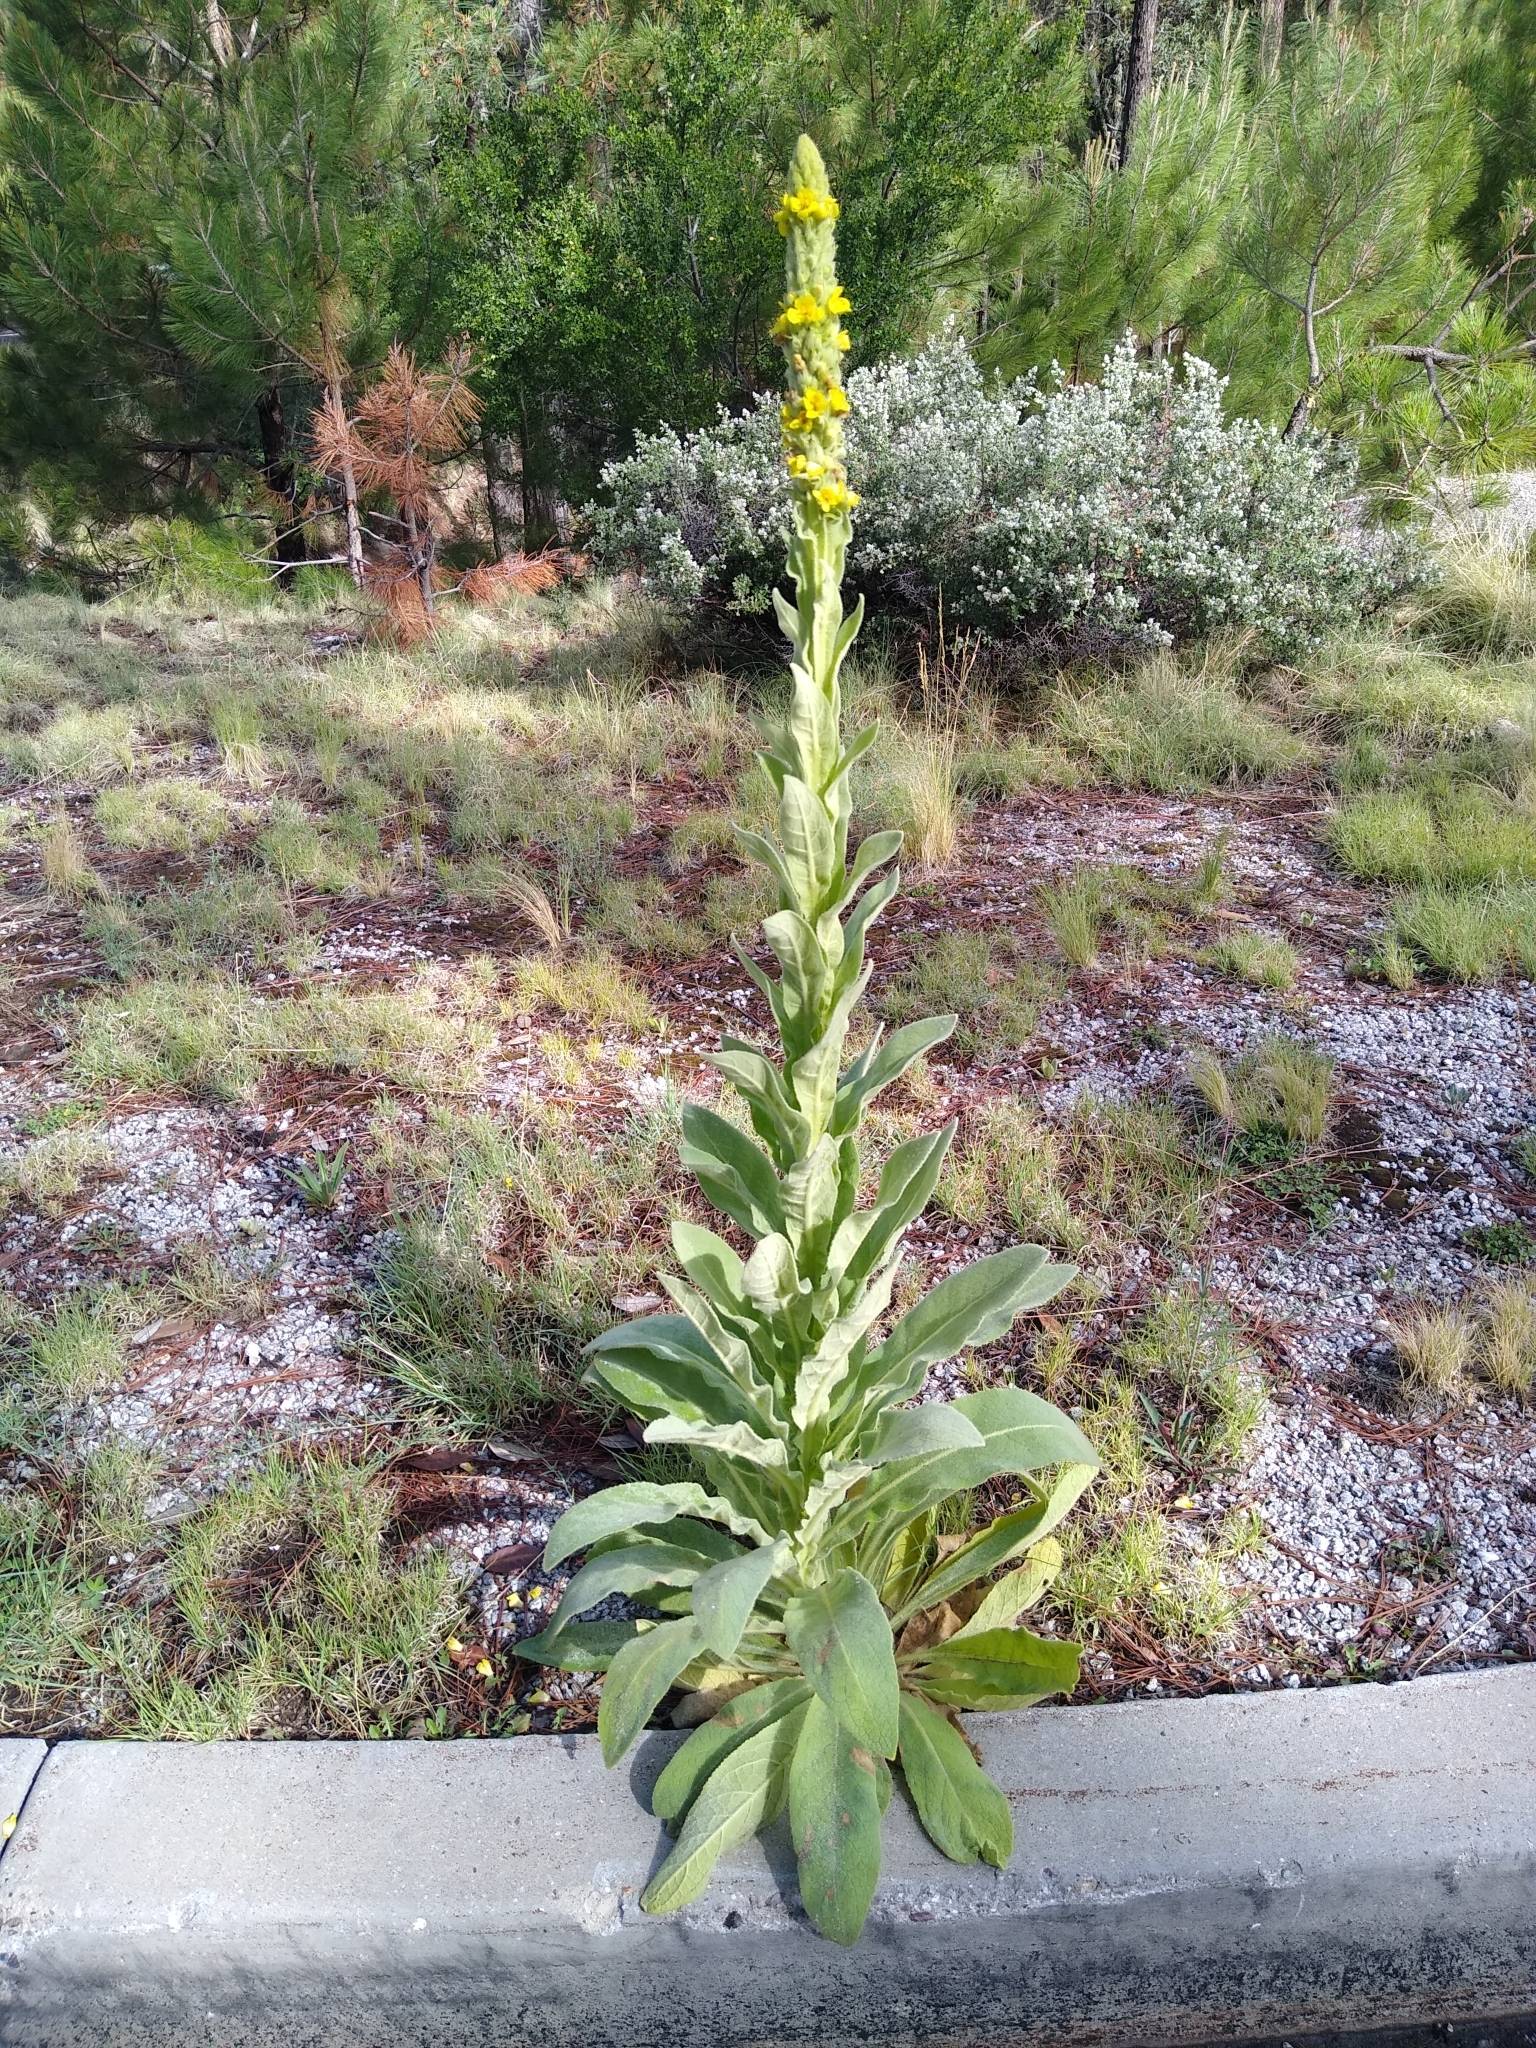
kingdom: Plantae
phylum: Tracheophyta
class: Magnoliopsida
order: Lamiales
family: Scrophulariaceae
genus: Verbascum
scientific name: Verbascum thapsus
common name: Common mullein
